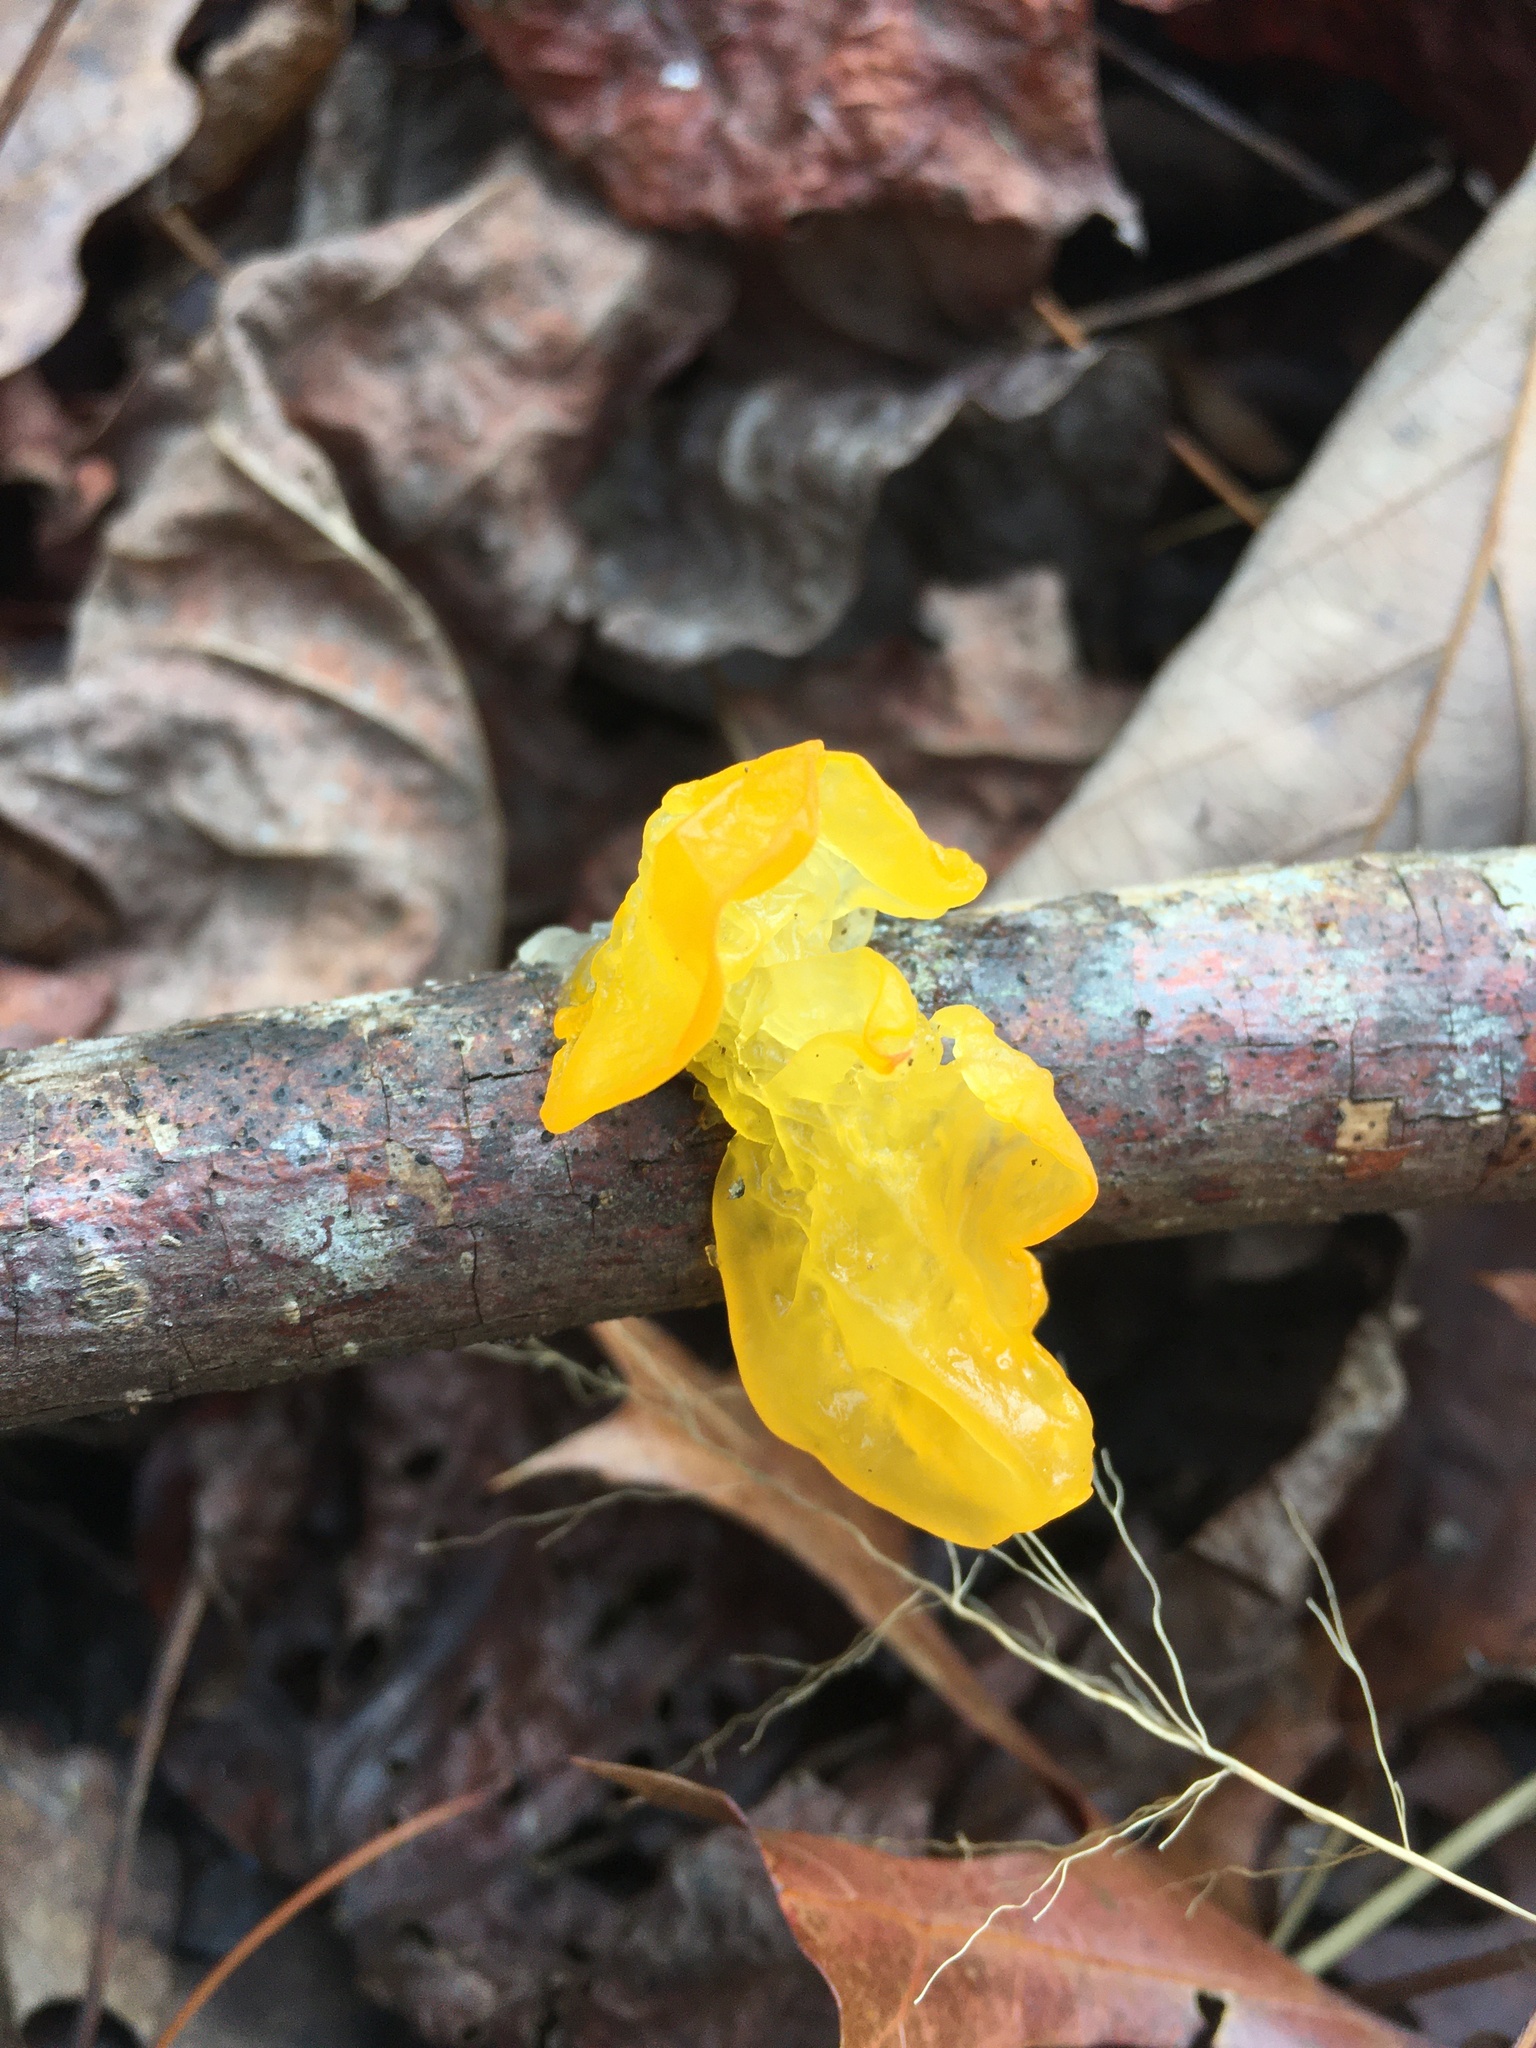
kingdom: Fungi
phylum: Basidiomycota
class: Tremellomycetes
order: Tremellales
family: Tremellaceae
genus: Tremella
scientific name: Tremella mesenterica
